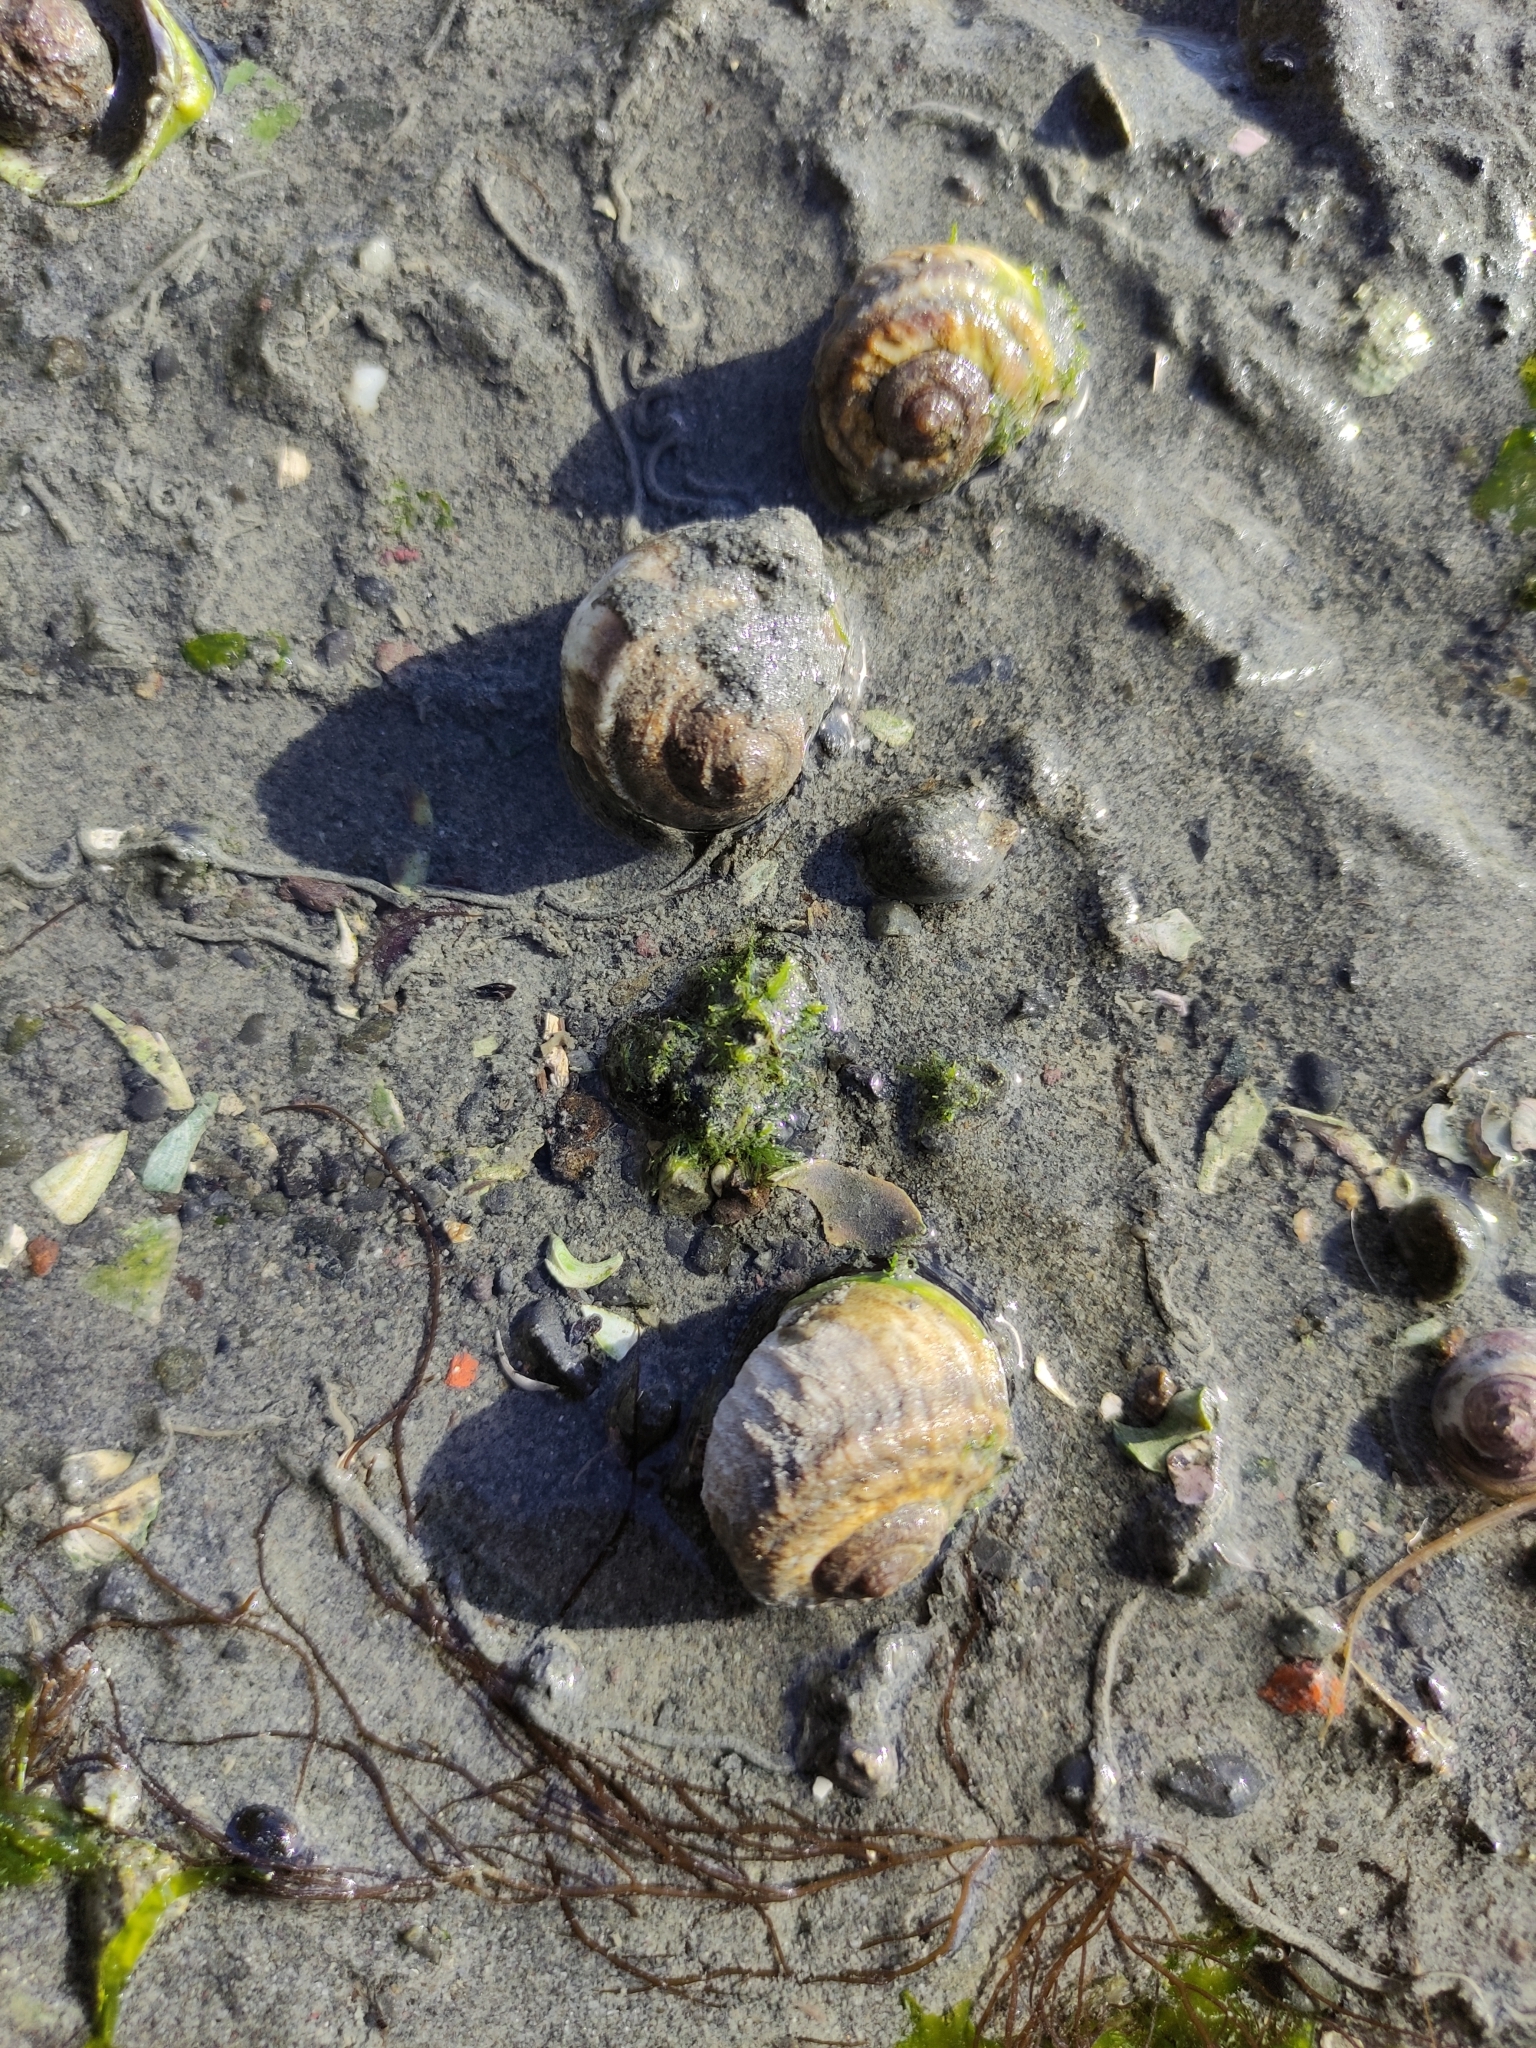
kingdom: Animalia
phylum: Mollusca
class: Gastropoda
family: Amphibolidae
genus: Amphibola
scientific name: Amphibola crenata
